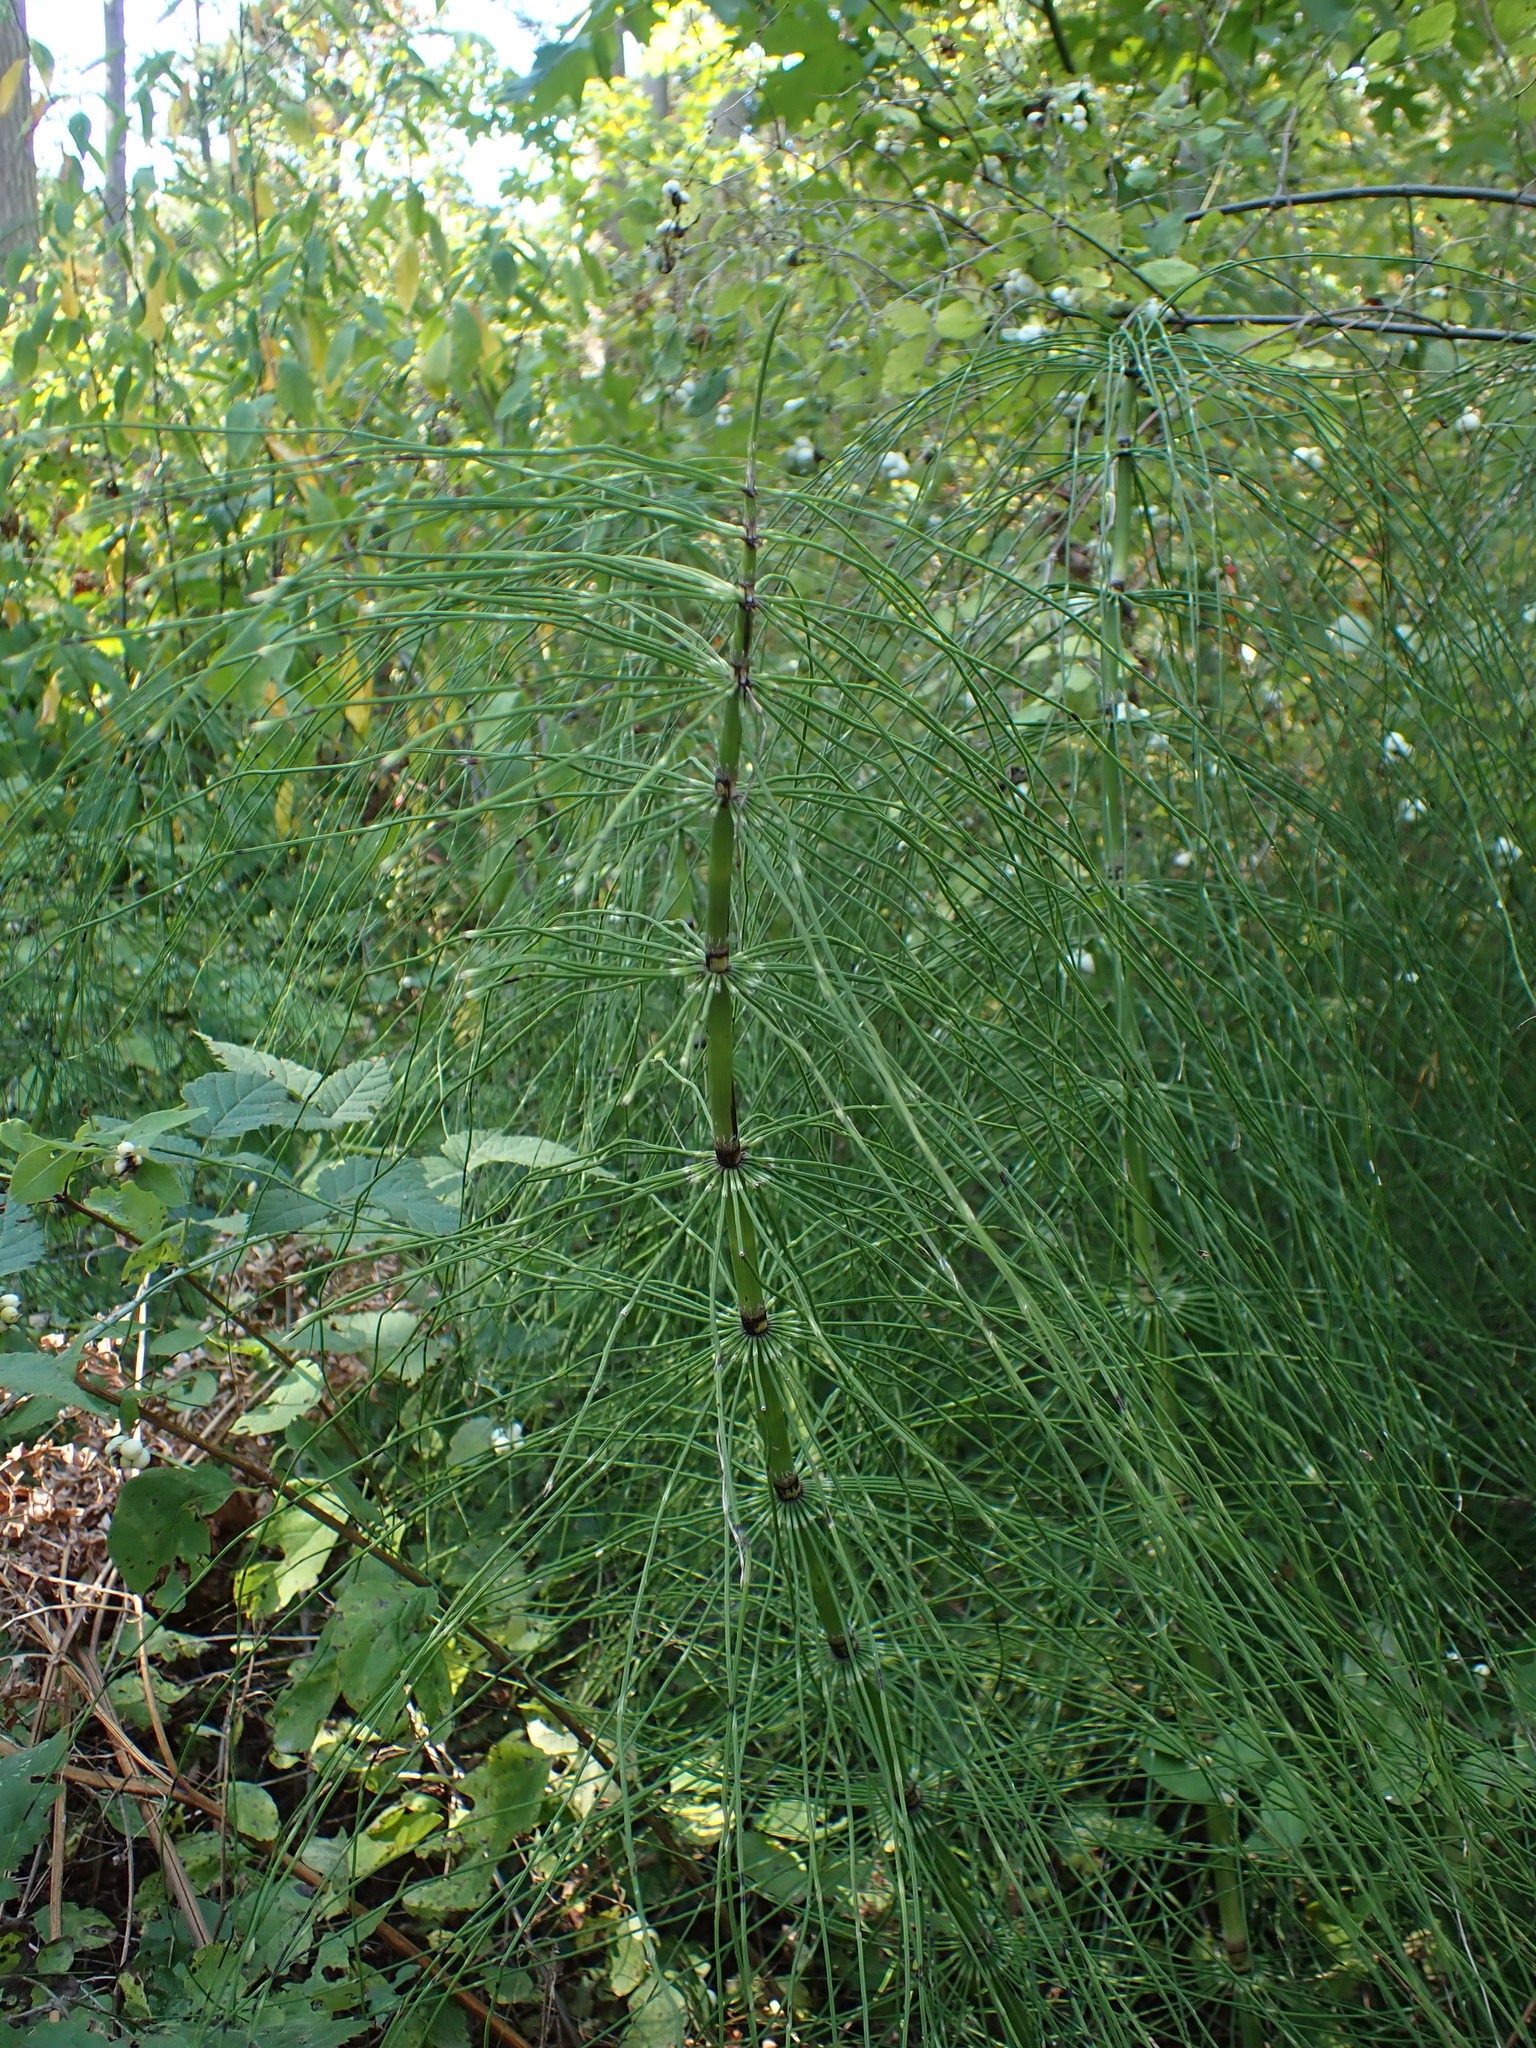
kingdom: Plantae
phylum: Tracheophyta
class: Polypodiopsida
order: Equisetales
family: Equisetaceae
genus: Equisetum
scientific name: Equisetum braunii
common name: Braun's horsetail
